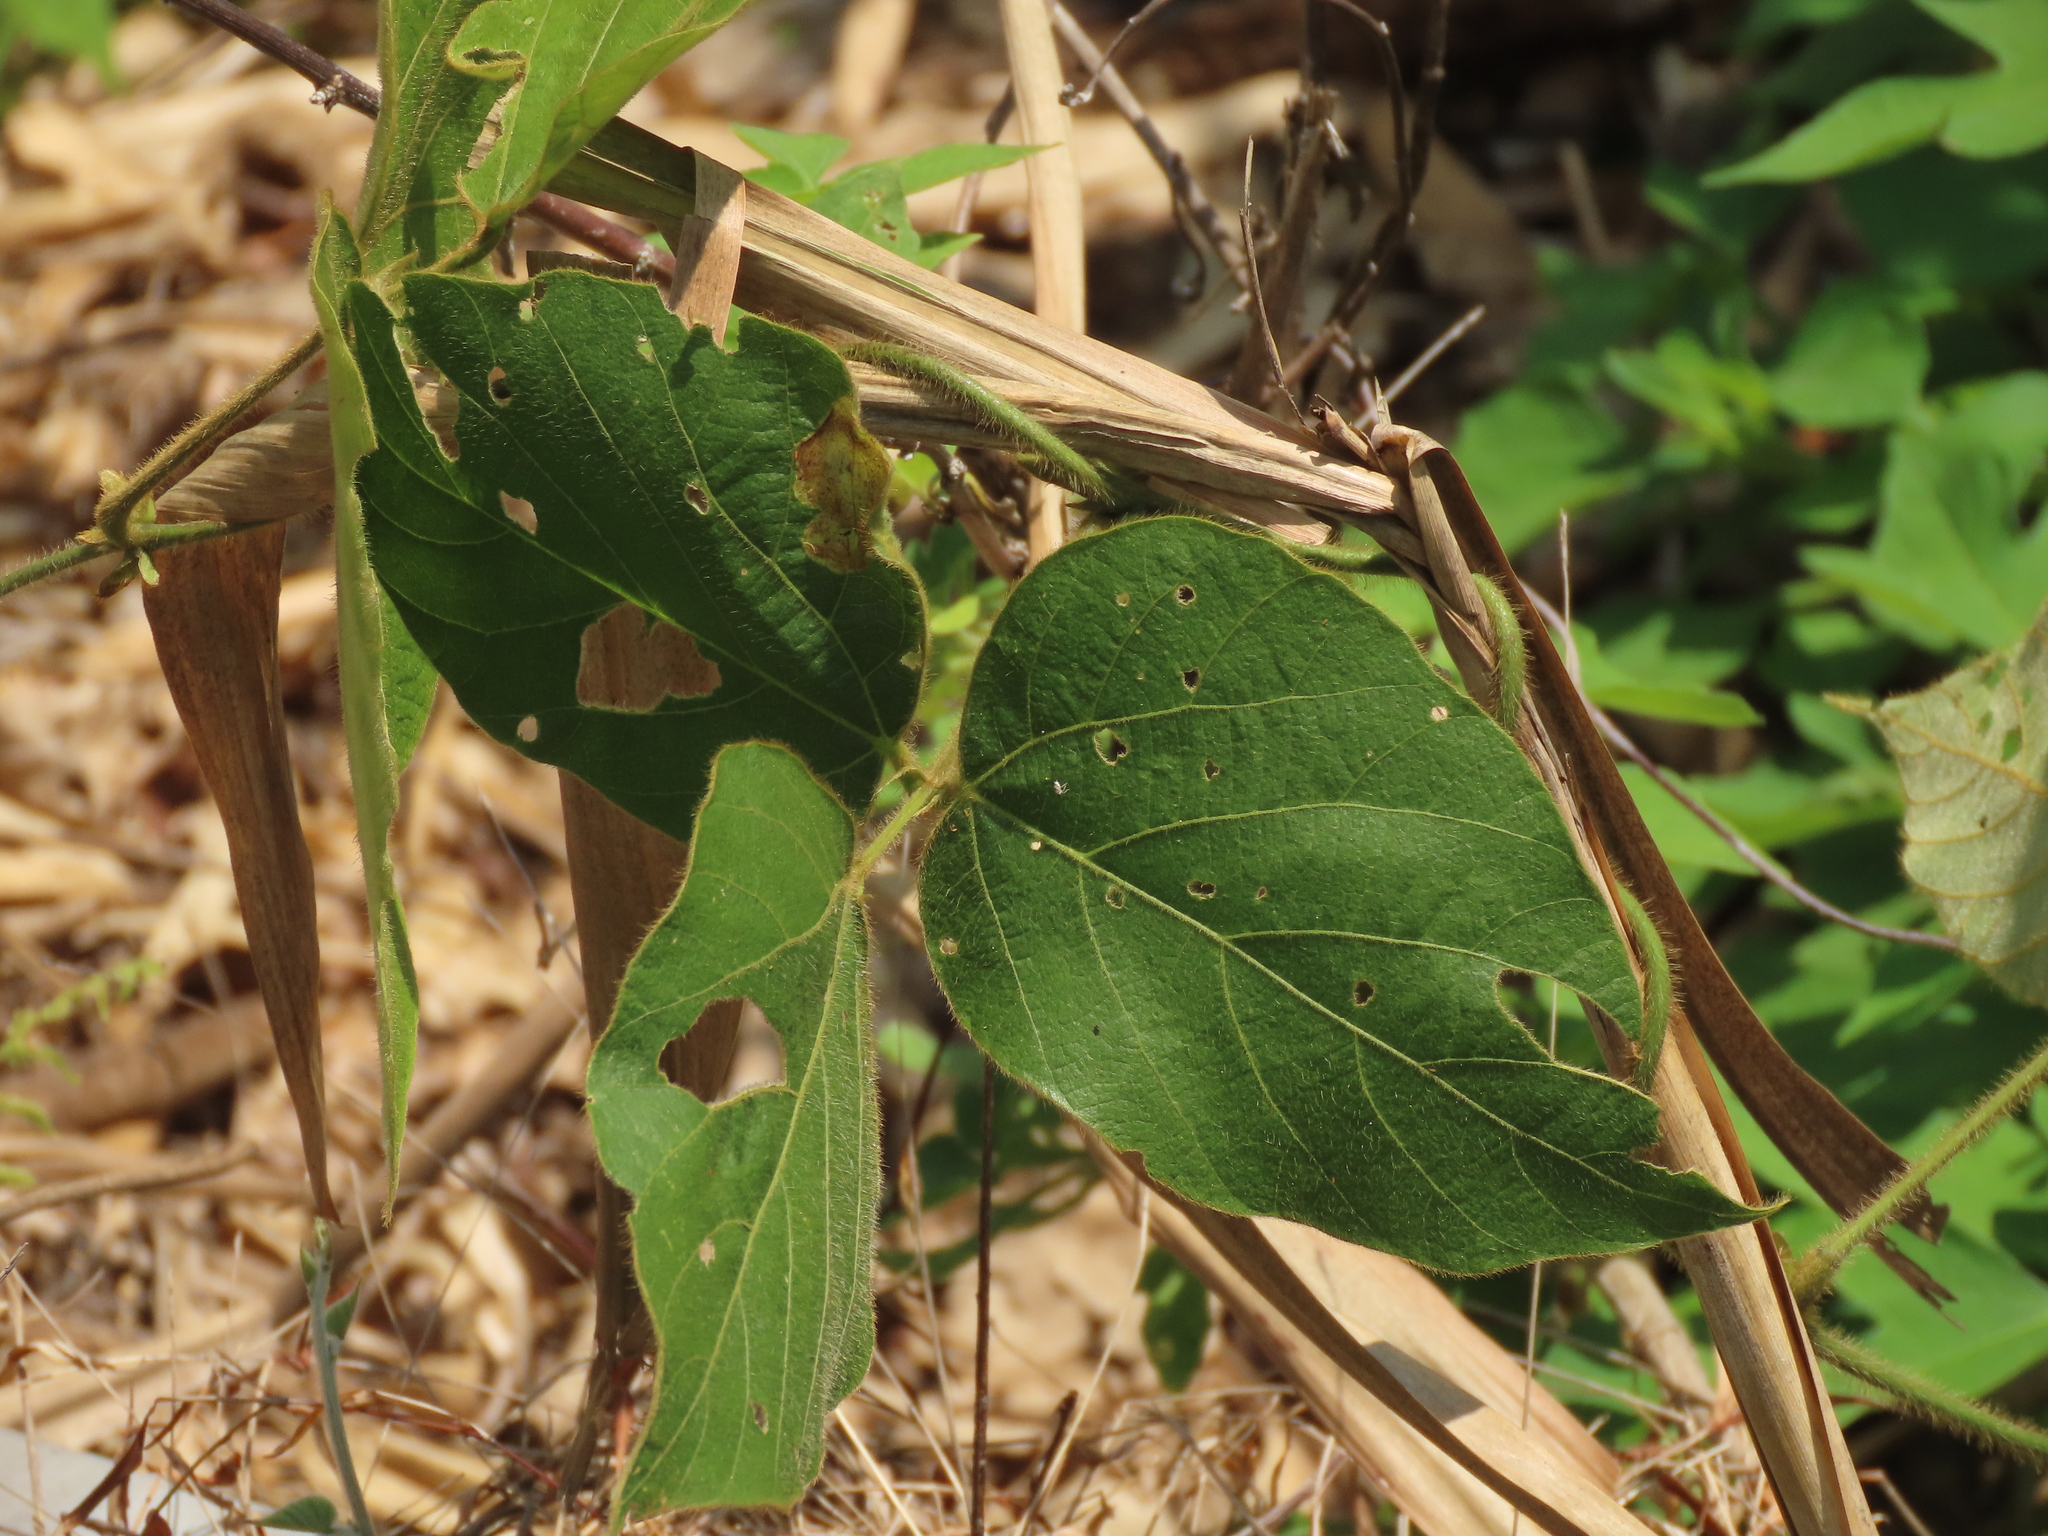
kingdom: Plantae
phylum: Tracheophyta
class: Magnoliopsida
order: Fabales
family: Fabaceae
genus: Pueraria
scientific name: Pueraria montana
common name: Kudzu
